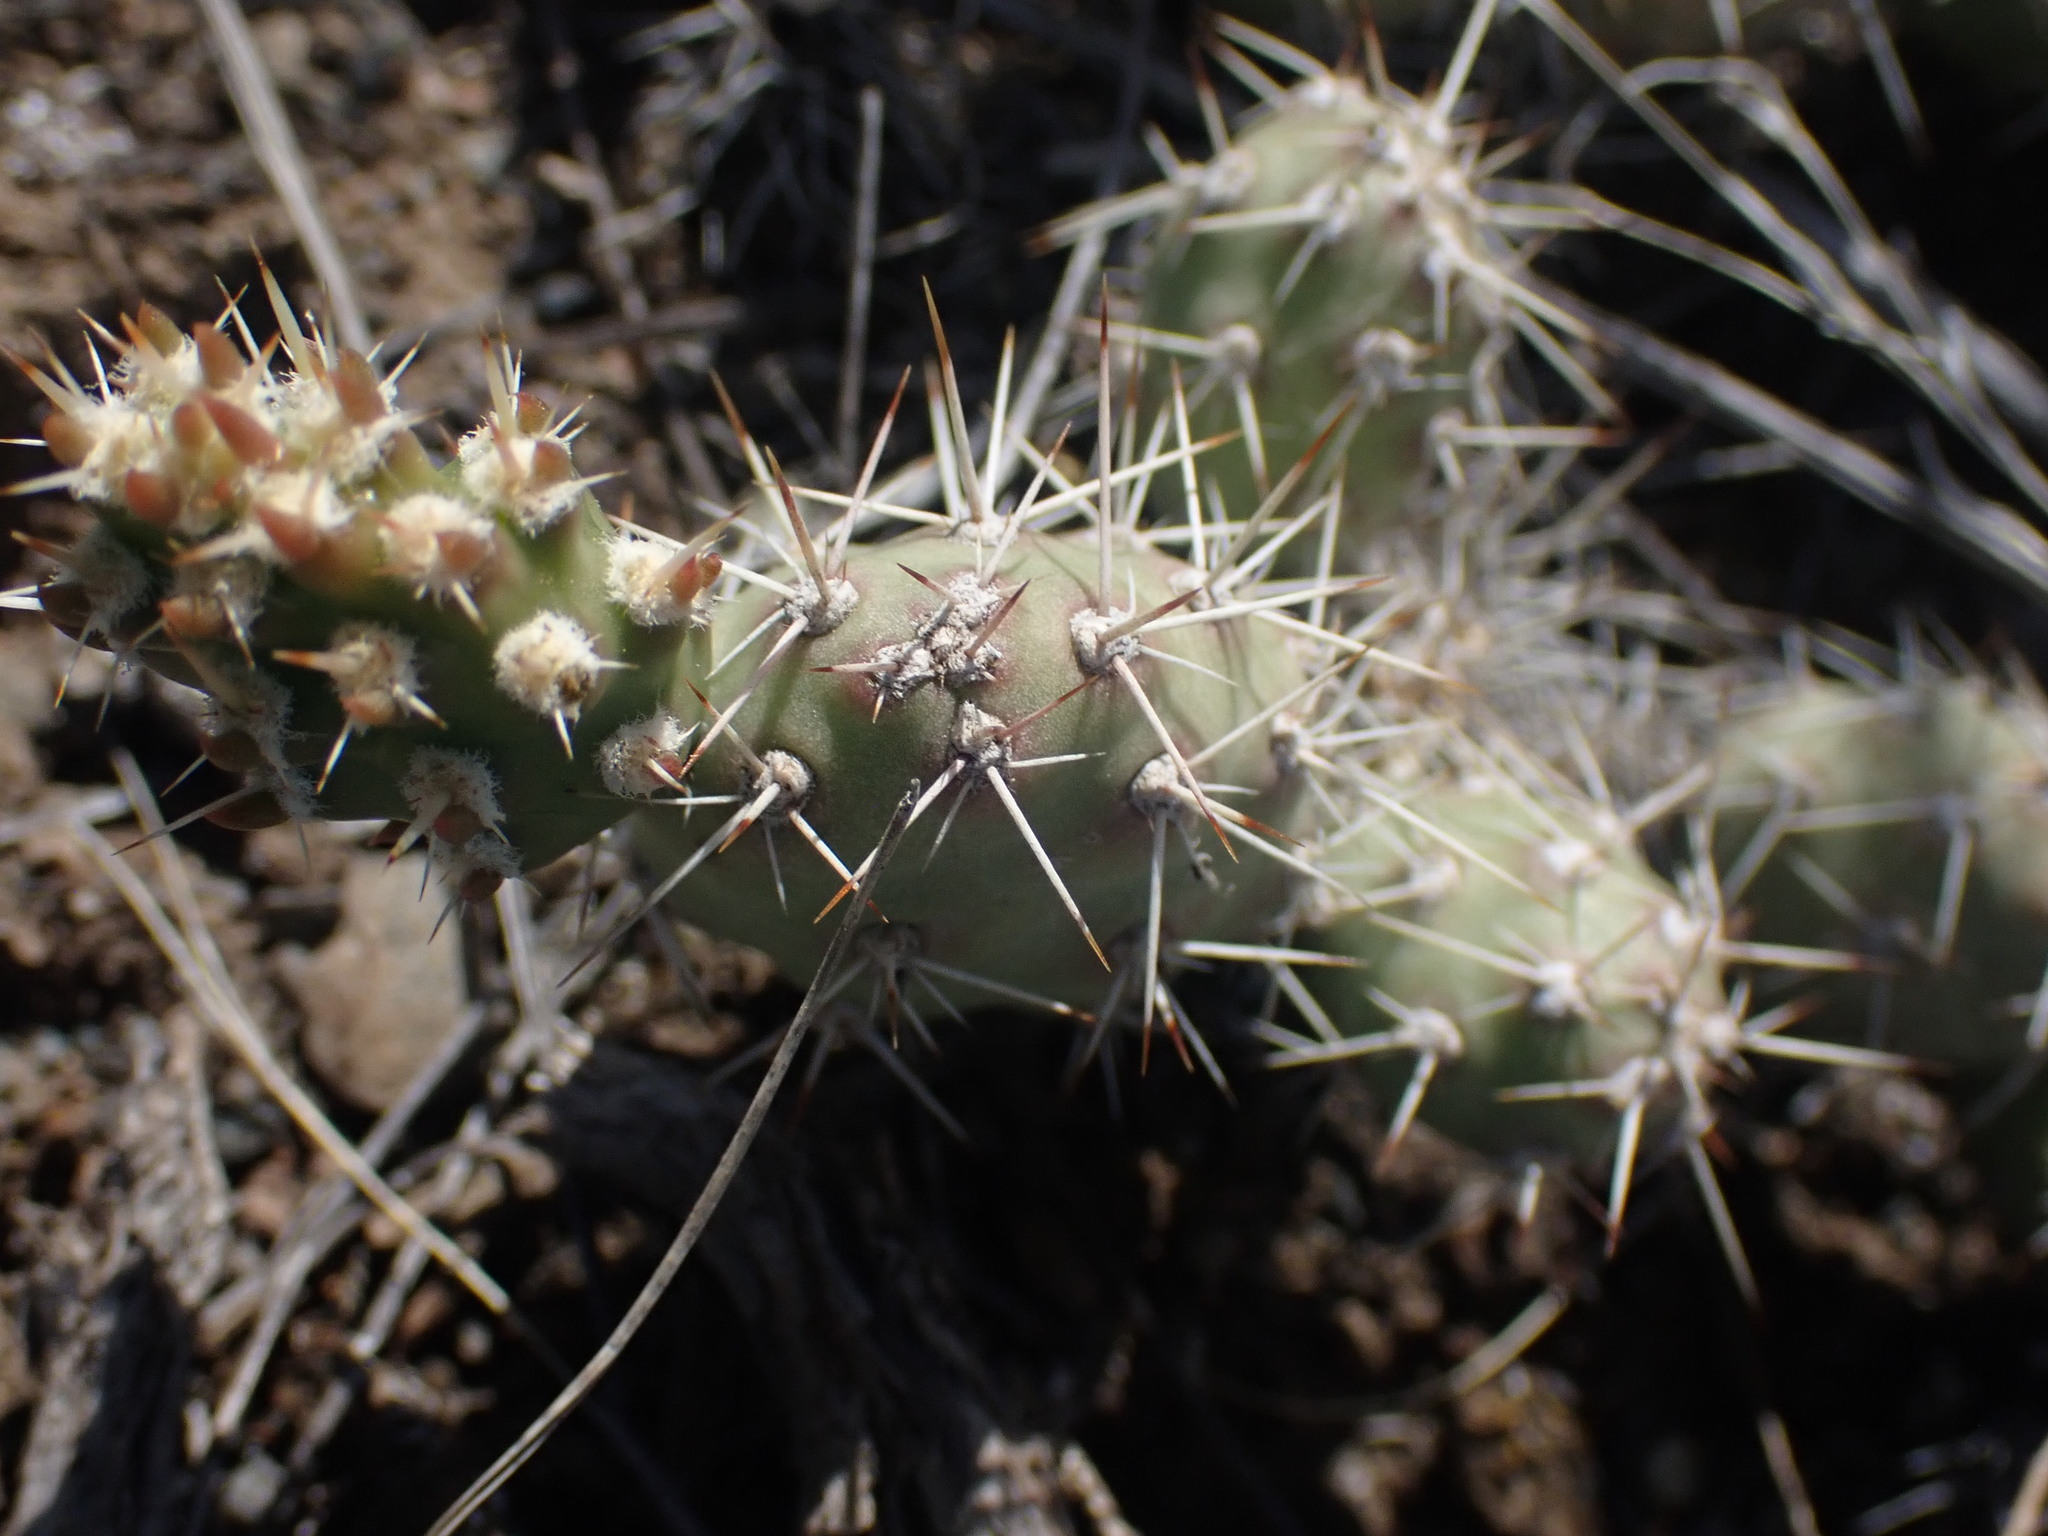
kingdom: Plantae
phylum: Tracheophyta
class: Magnoliopsida
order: Caryophyllales
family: Cactaceae
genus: Opuntia
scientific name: Opuntia fragilis
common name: Brittle cactus
